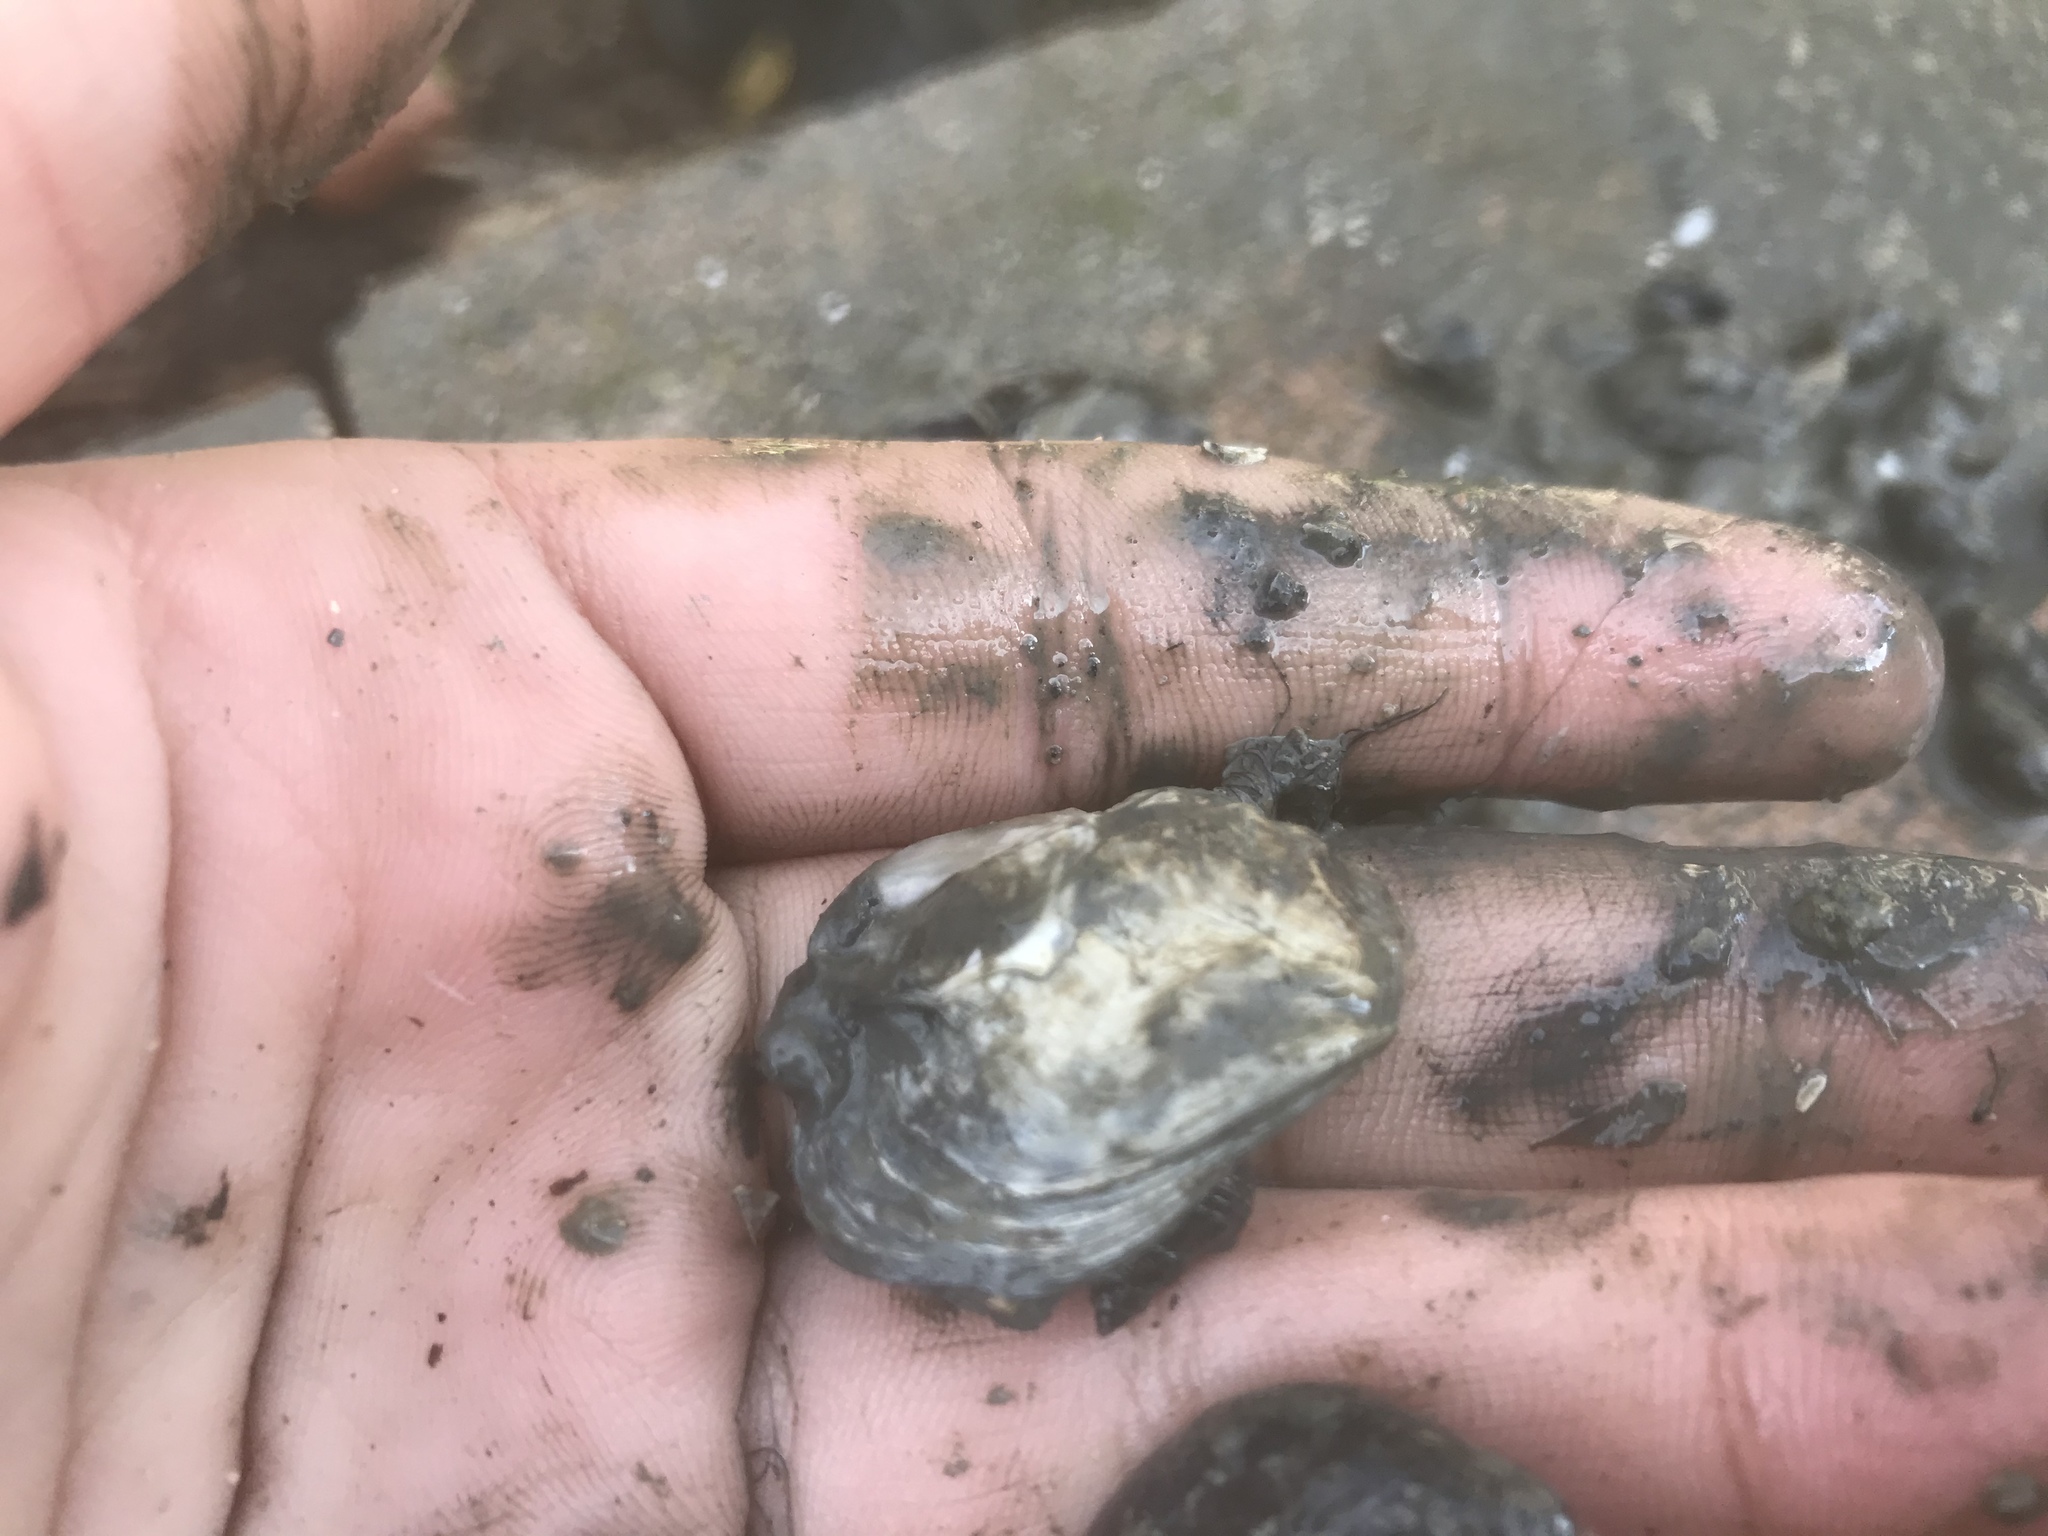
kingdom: Animalia
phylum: Mollusca
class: Bivalvia
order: Ostreida
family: Ostreidae
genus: Ostrea
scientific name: Ostrea lurida
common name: Olympia flat oyster
